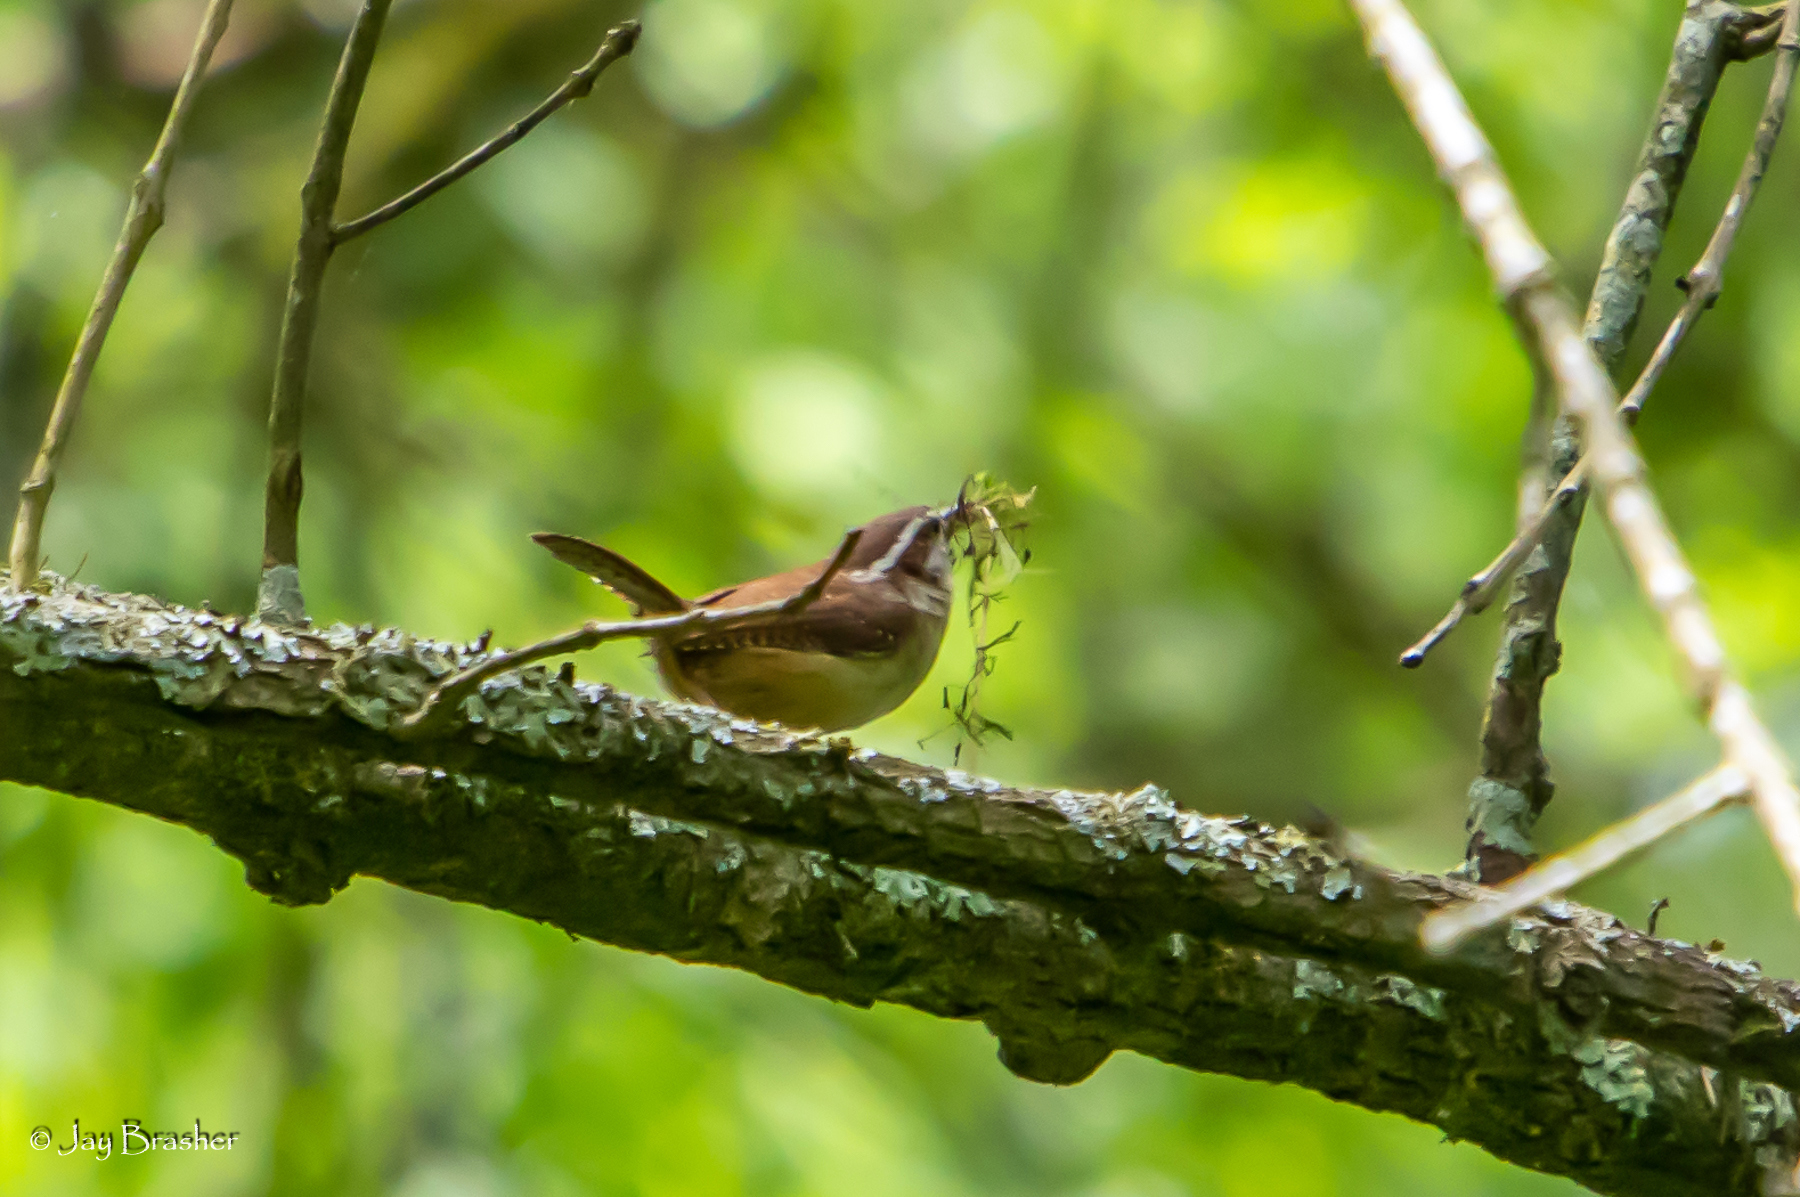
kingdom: Animalia
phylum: Chordata
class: Aves
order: Passeriformes
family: Troglodytidae
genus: Thryothorus
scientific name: Thryothorus ludovicianus
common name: Carolina wren
